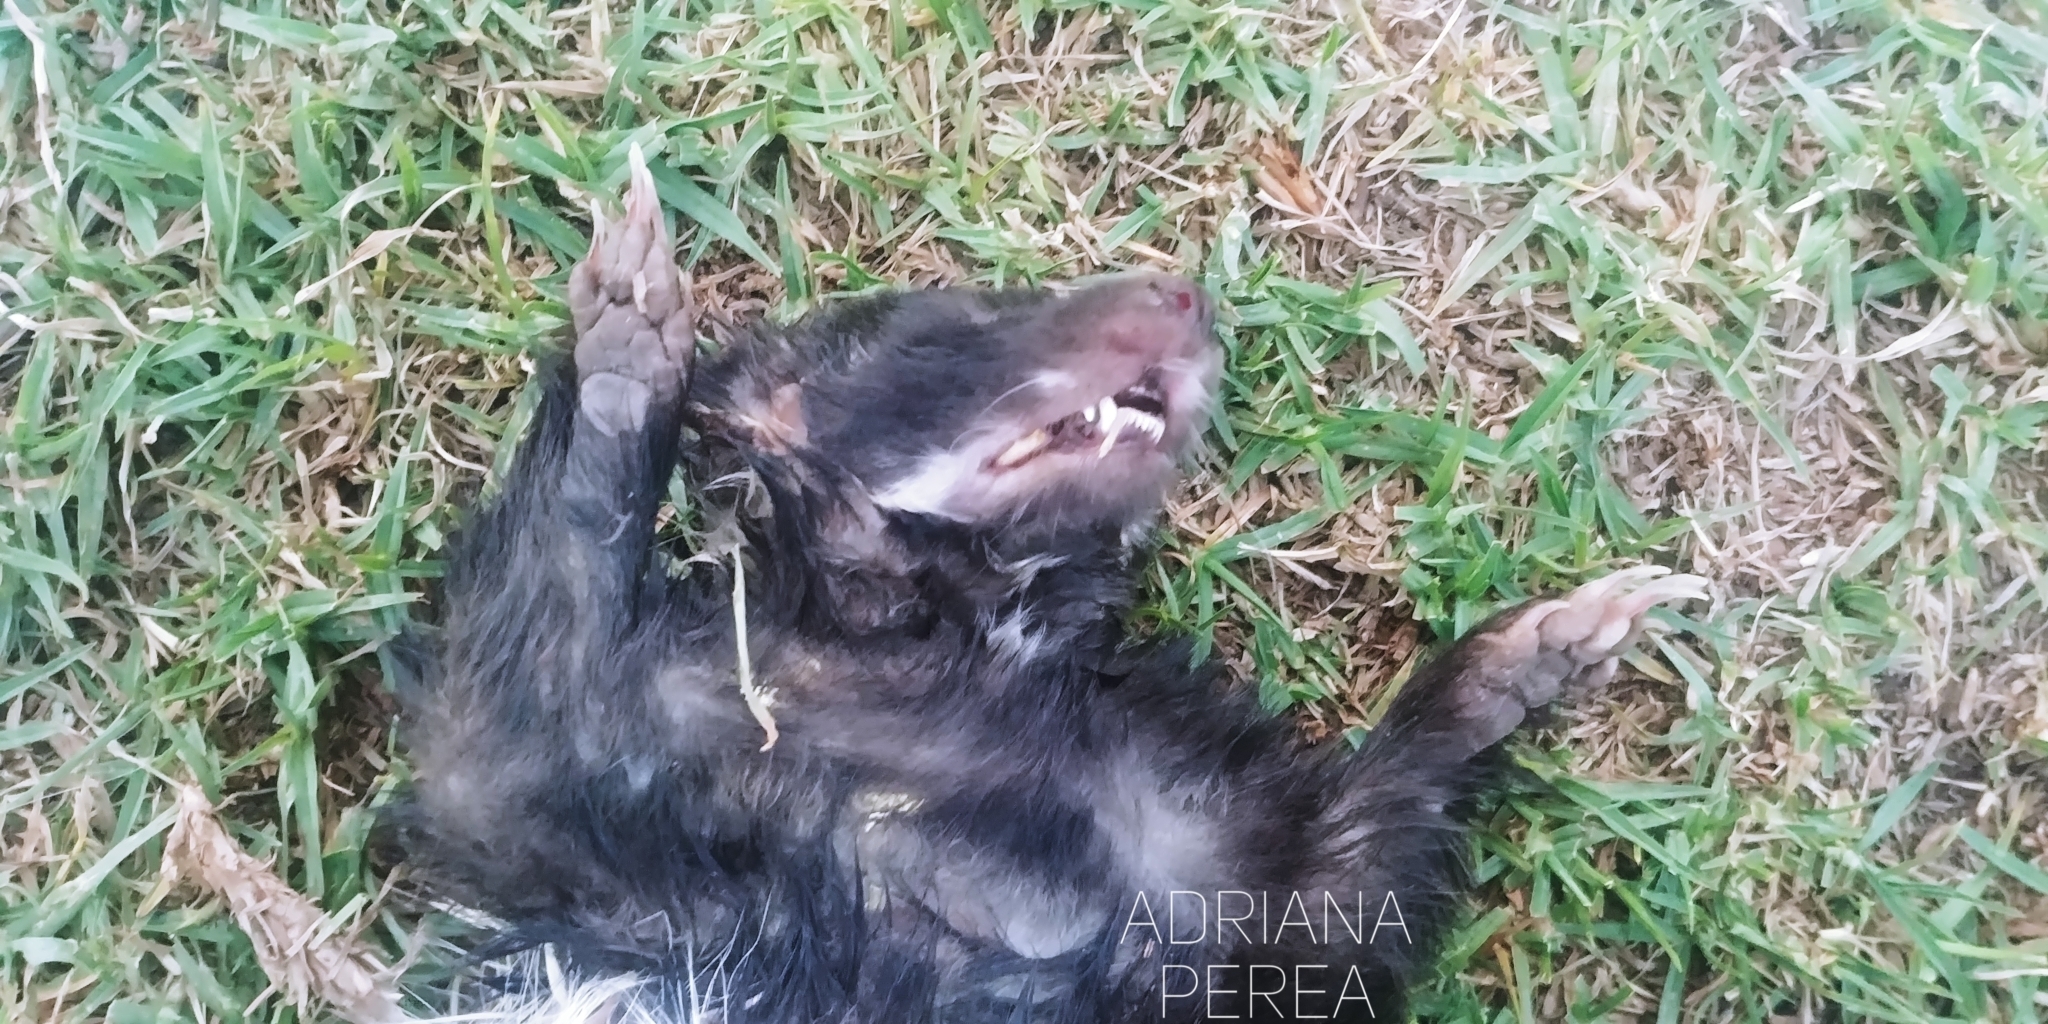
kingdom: Animalia
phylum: Chordata
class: Mammalia
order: Carnivora
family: Mephitidae
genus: Mephitis
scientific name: Mephitis macroura
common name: Hooded skunk
